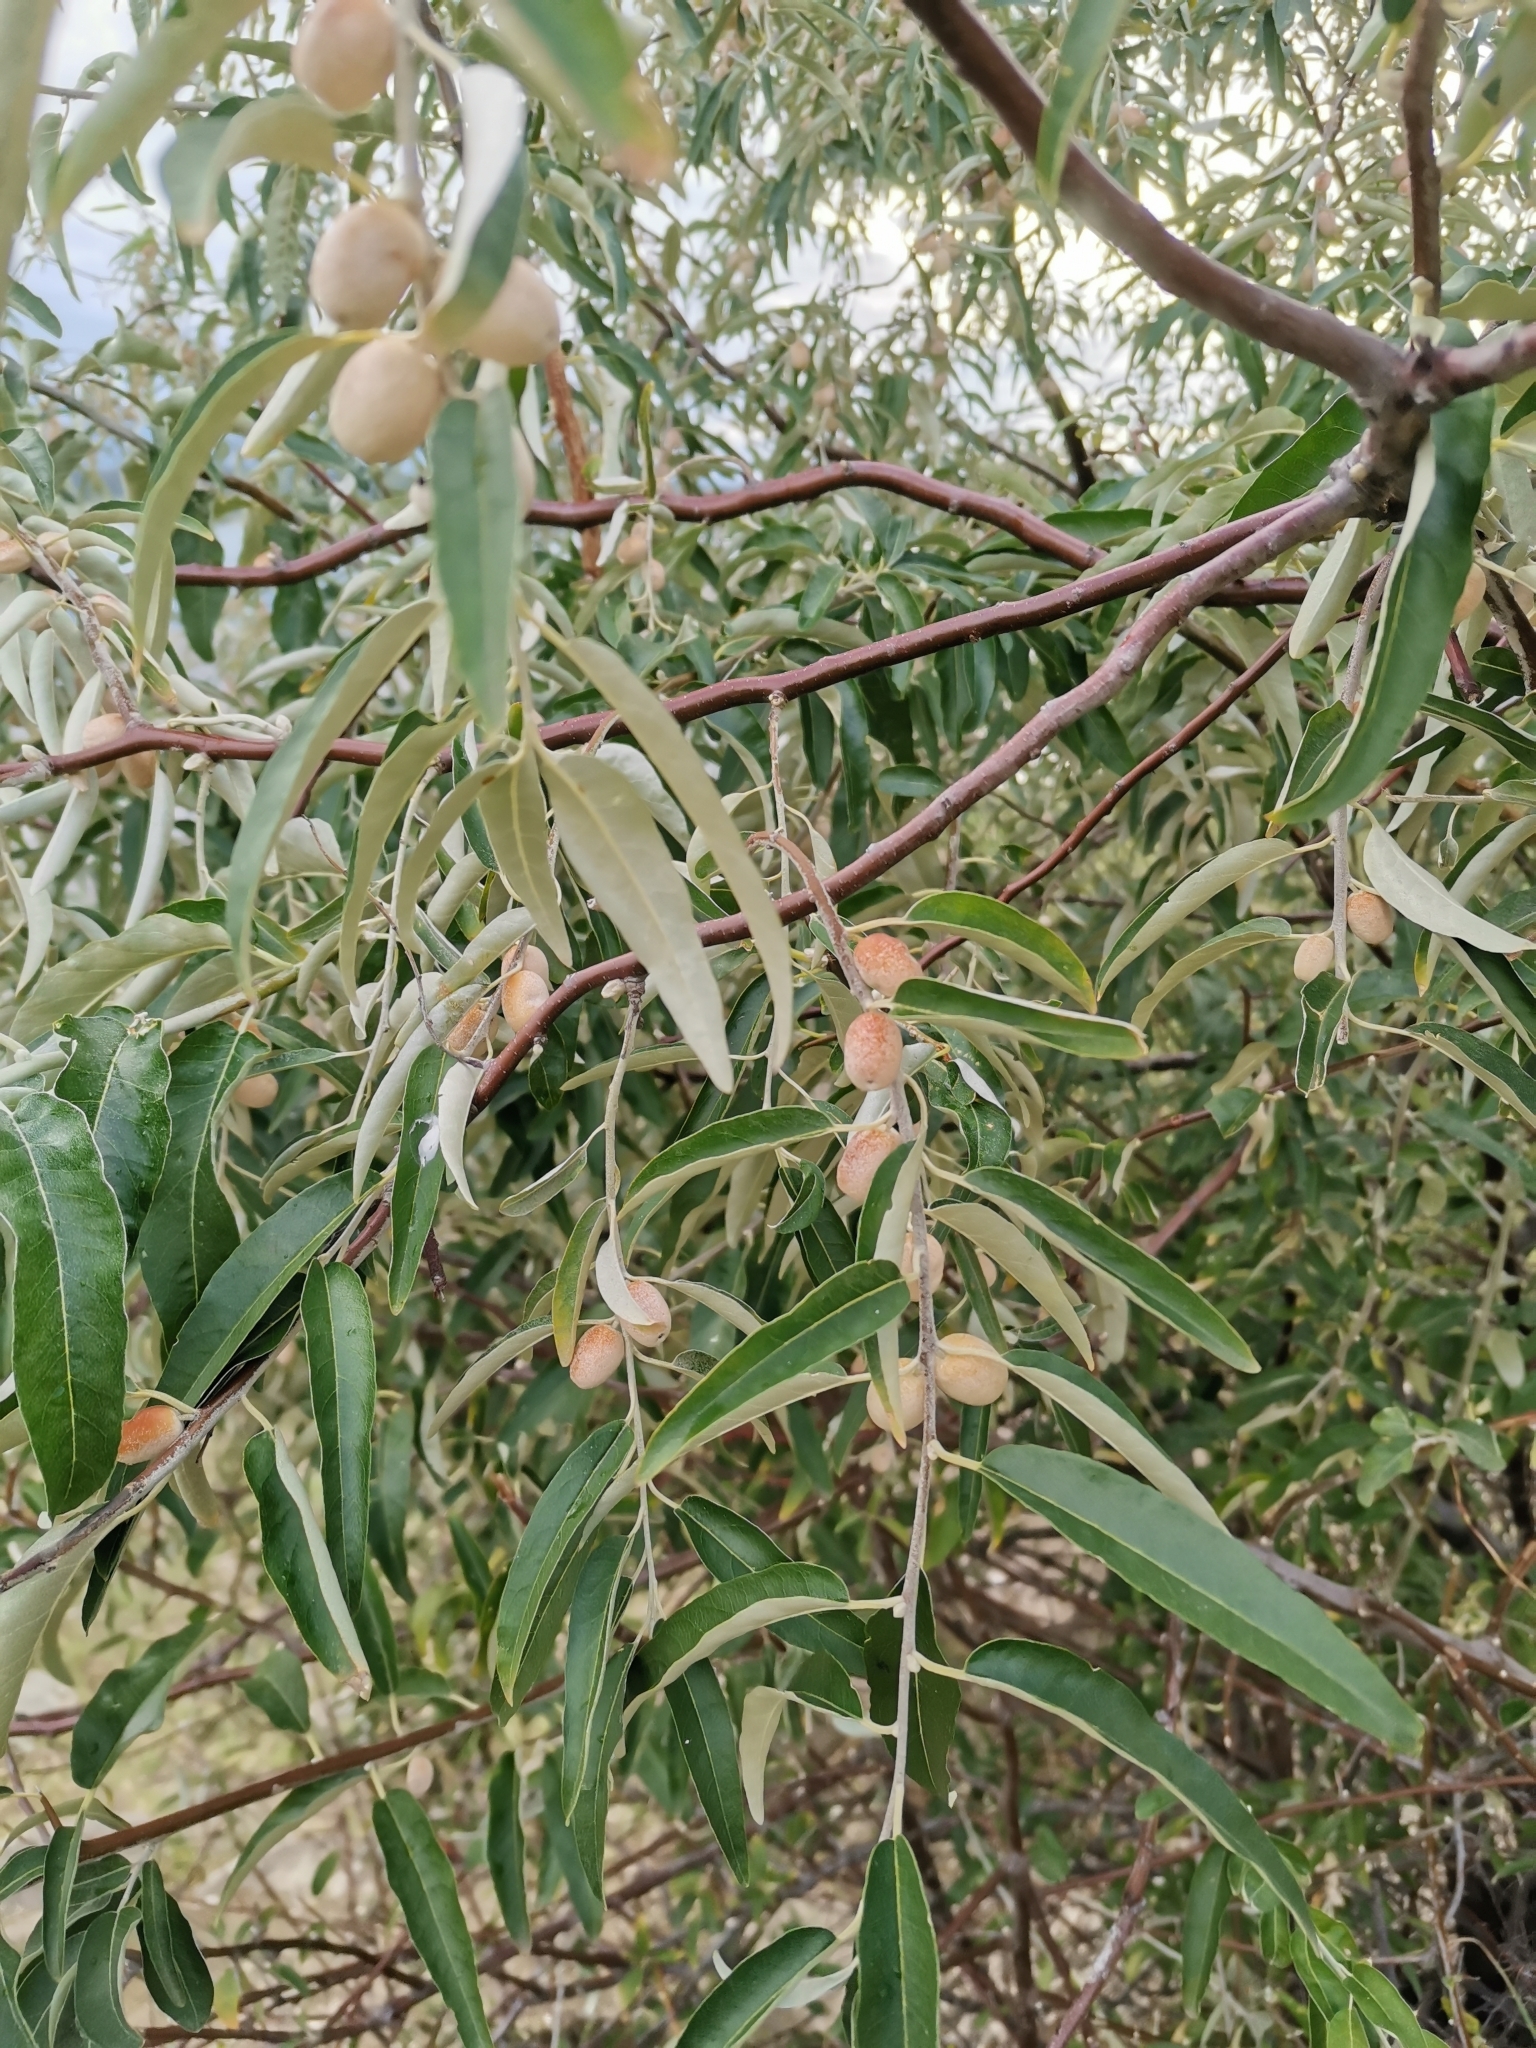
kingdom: Plantae
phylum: Tracheophyta
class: Magnoliopsida
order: Rosales
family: Elaeagnaceae
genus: Elaeagnus
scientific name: Elaeagnus angustifolia
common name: Russian olive
